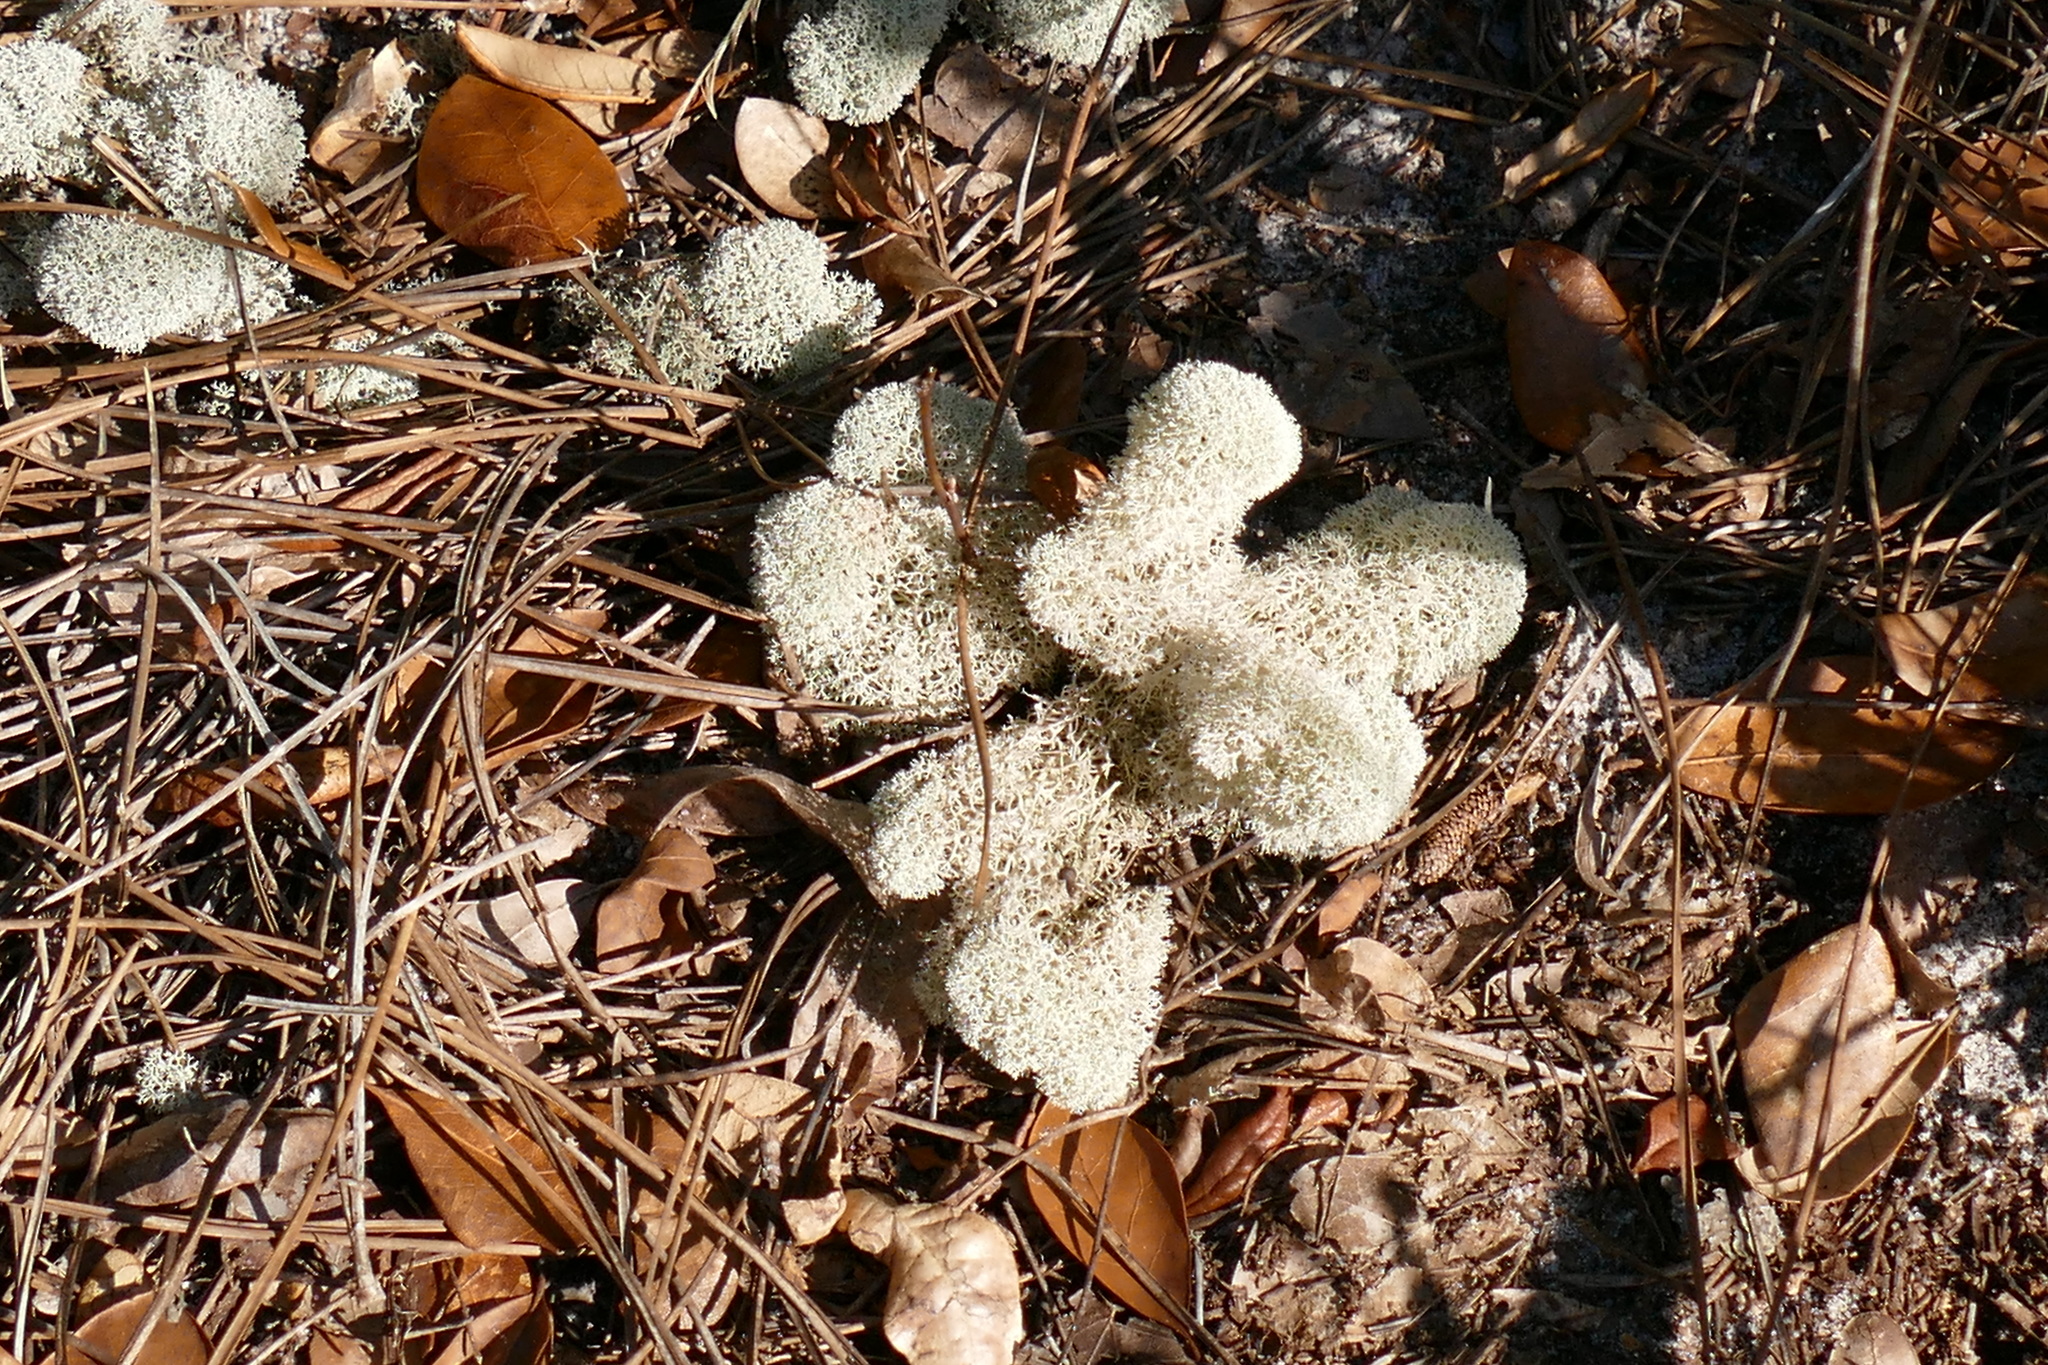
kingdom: Fungi
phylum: Ascomycota
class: Lecanoromycetes
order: Lecanorales
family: Cladoniaceae
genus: Cladonia
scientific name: Cladonia evansii
